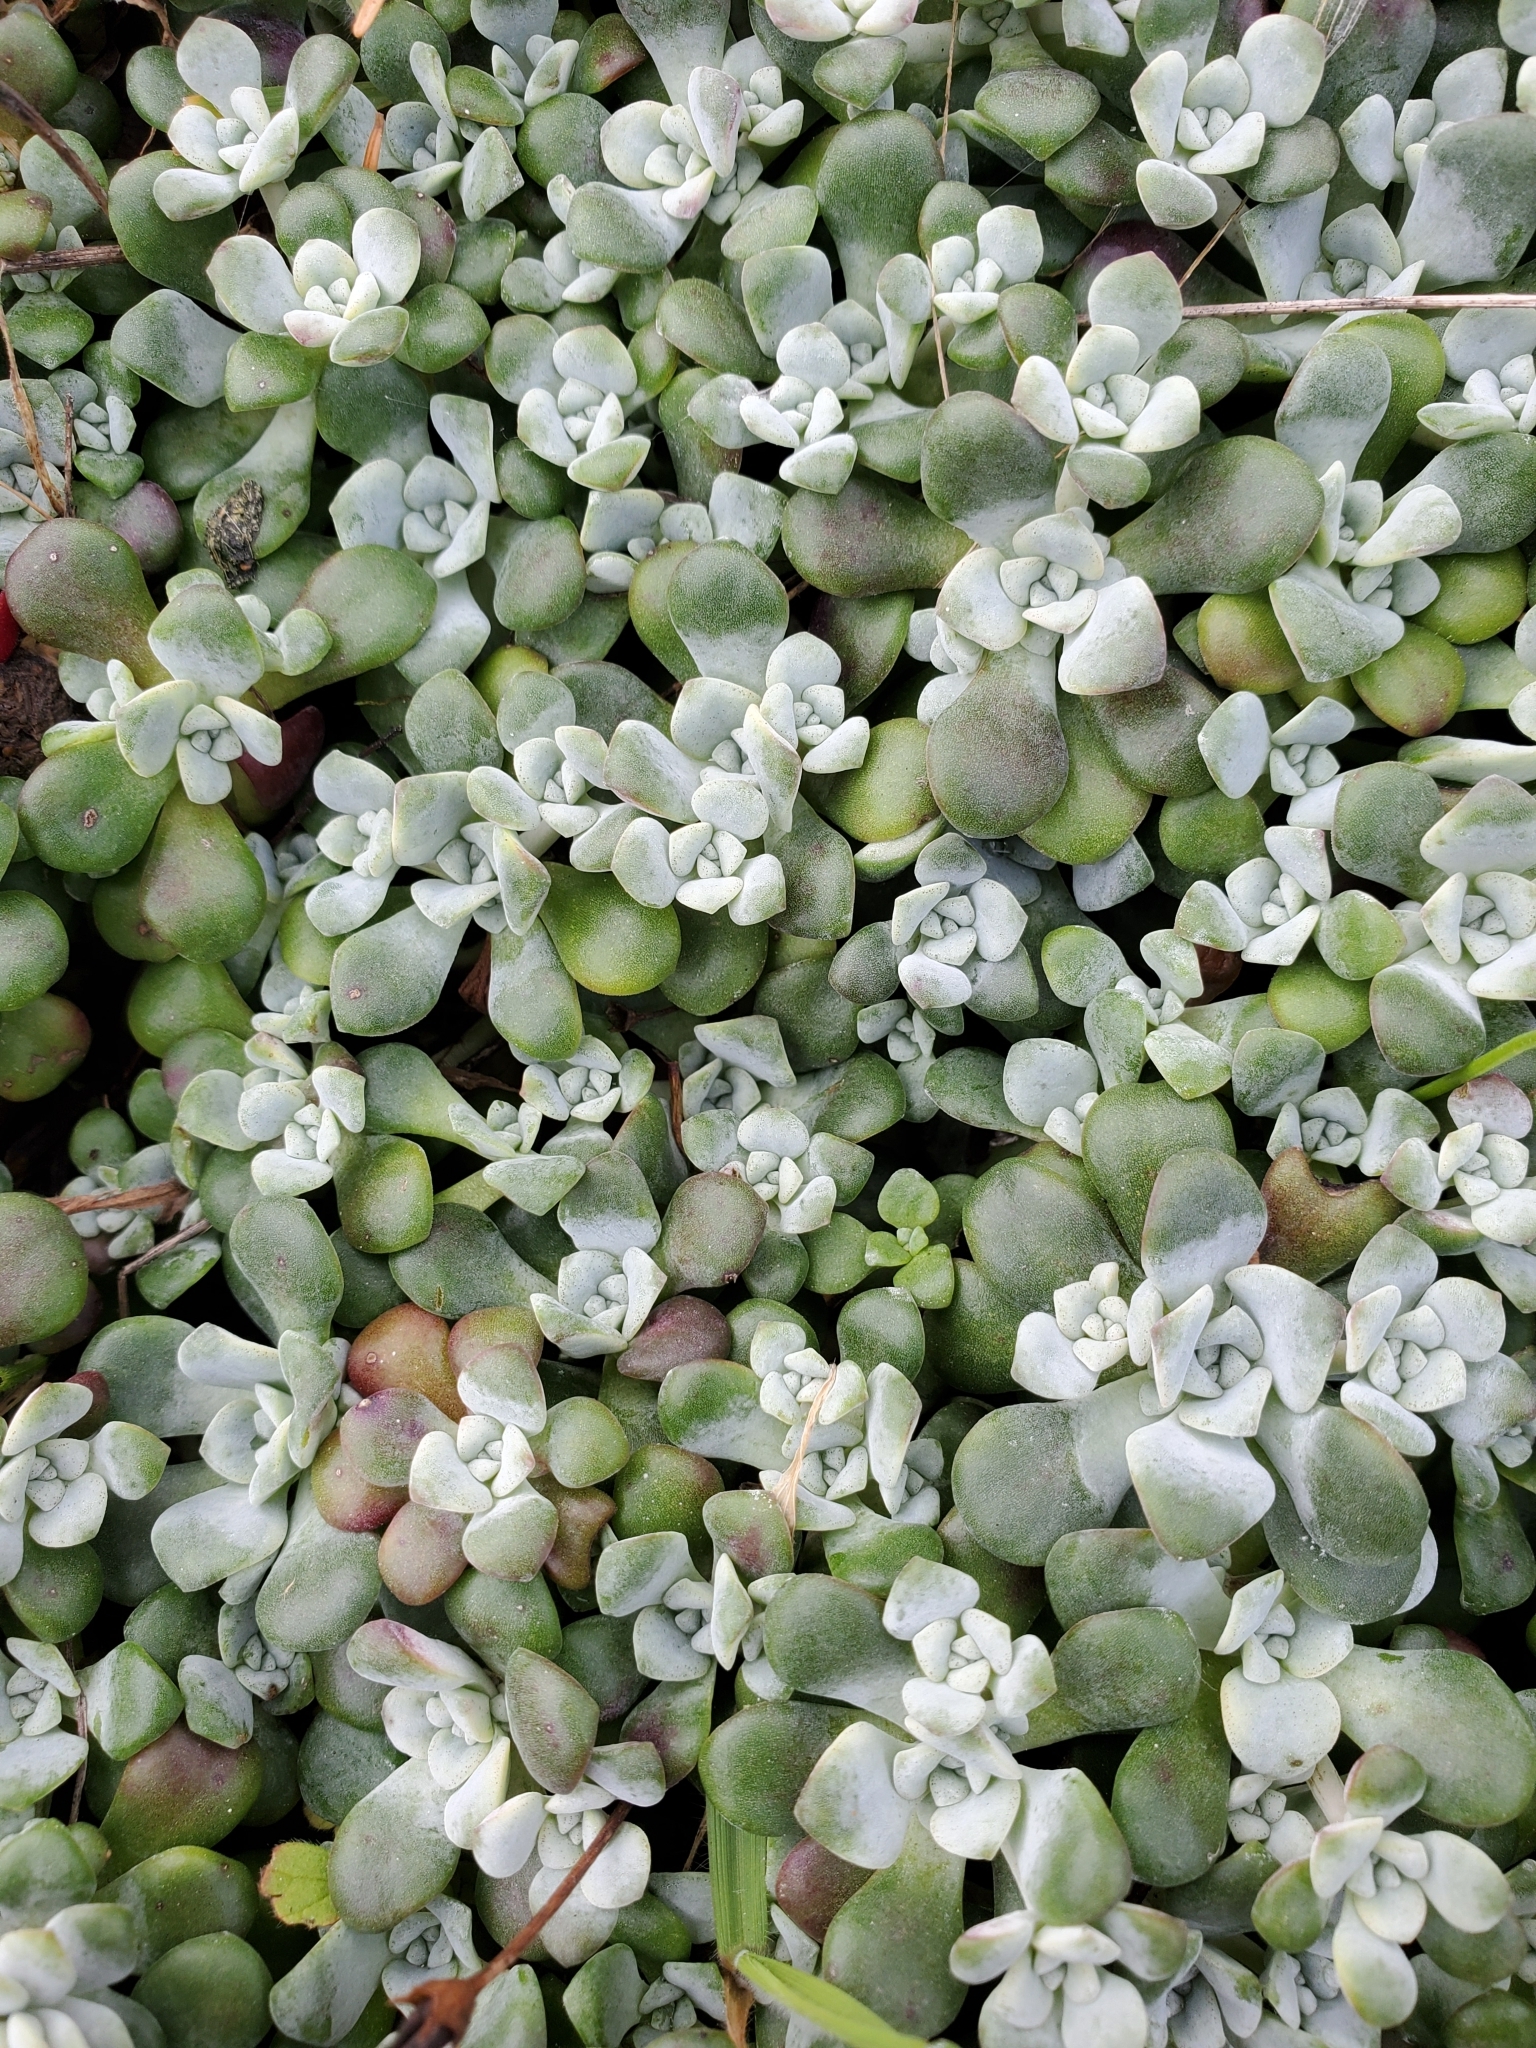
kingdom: Plantae
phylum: Tracheophyta
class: Magnoliopsida
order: Saxifragales
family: Crassulaceae
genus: Sedum
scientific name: Sedum spathulifolium
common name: Colorado stonecrop
